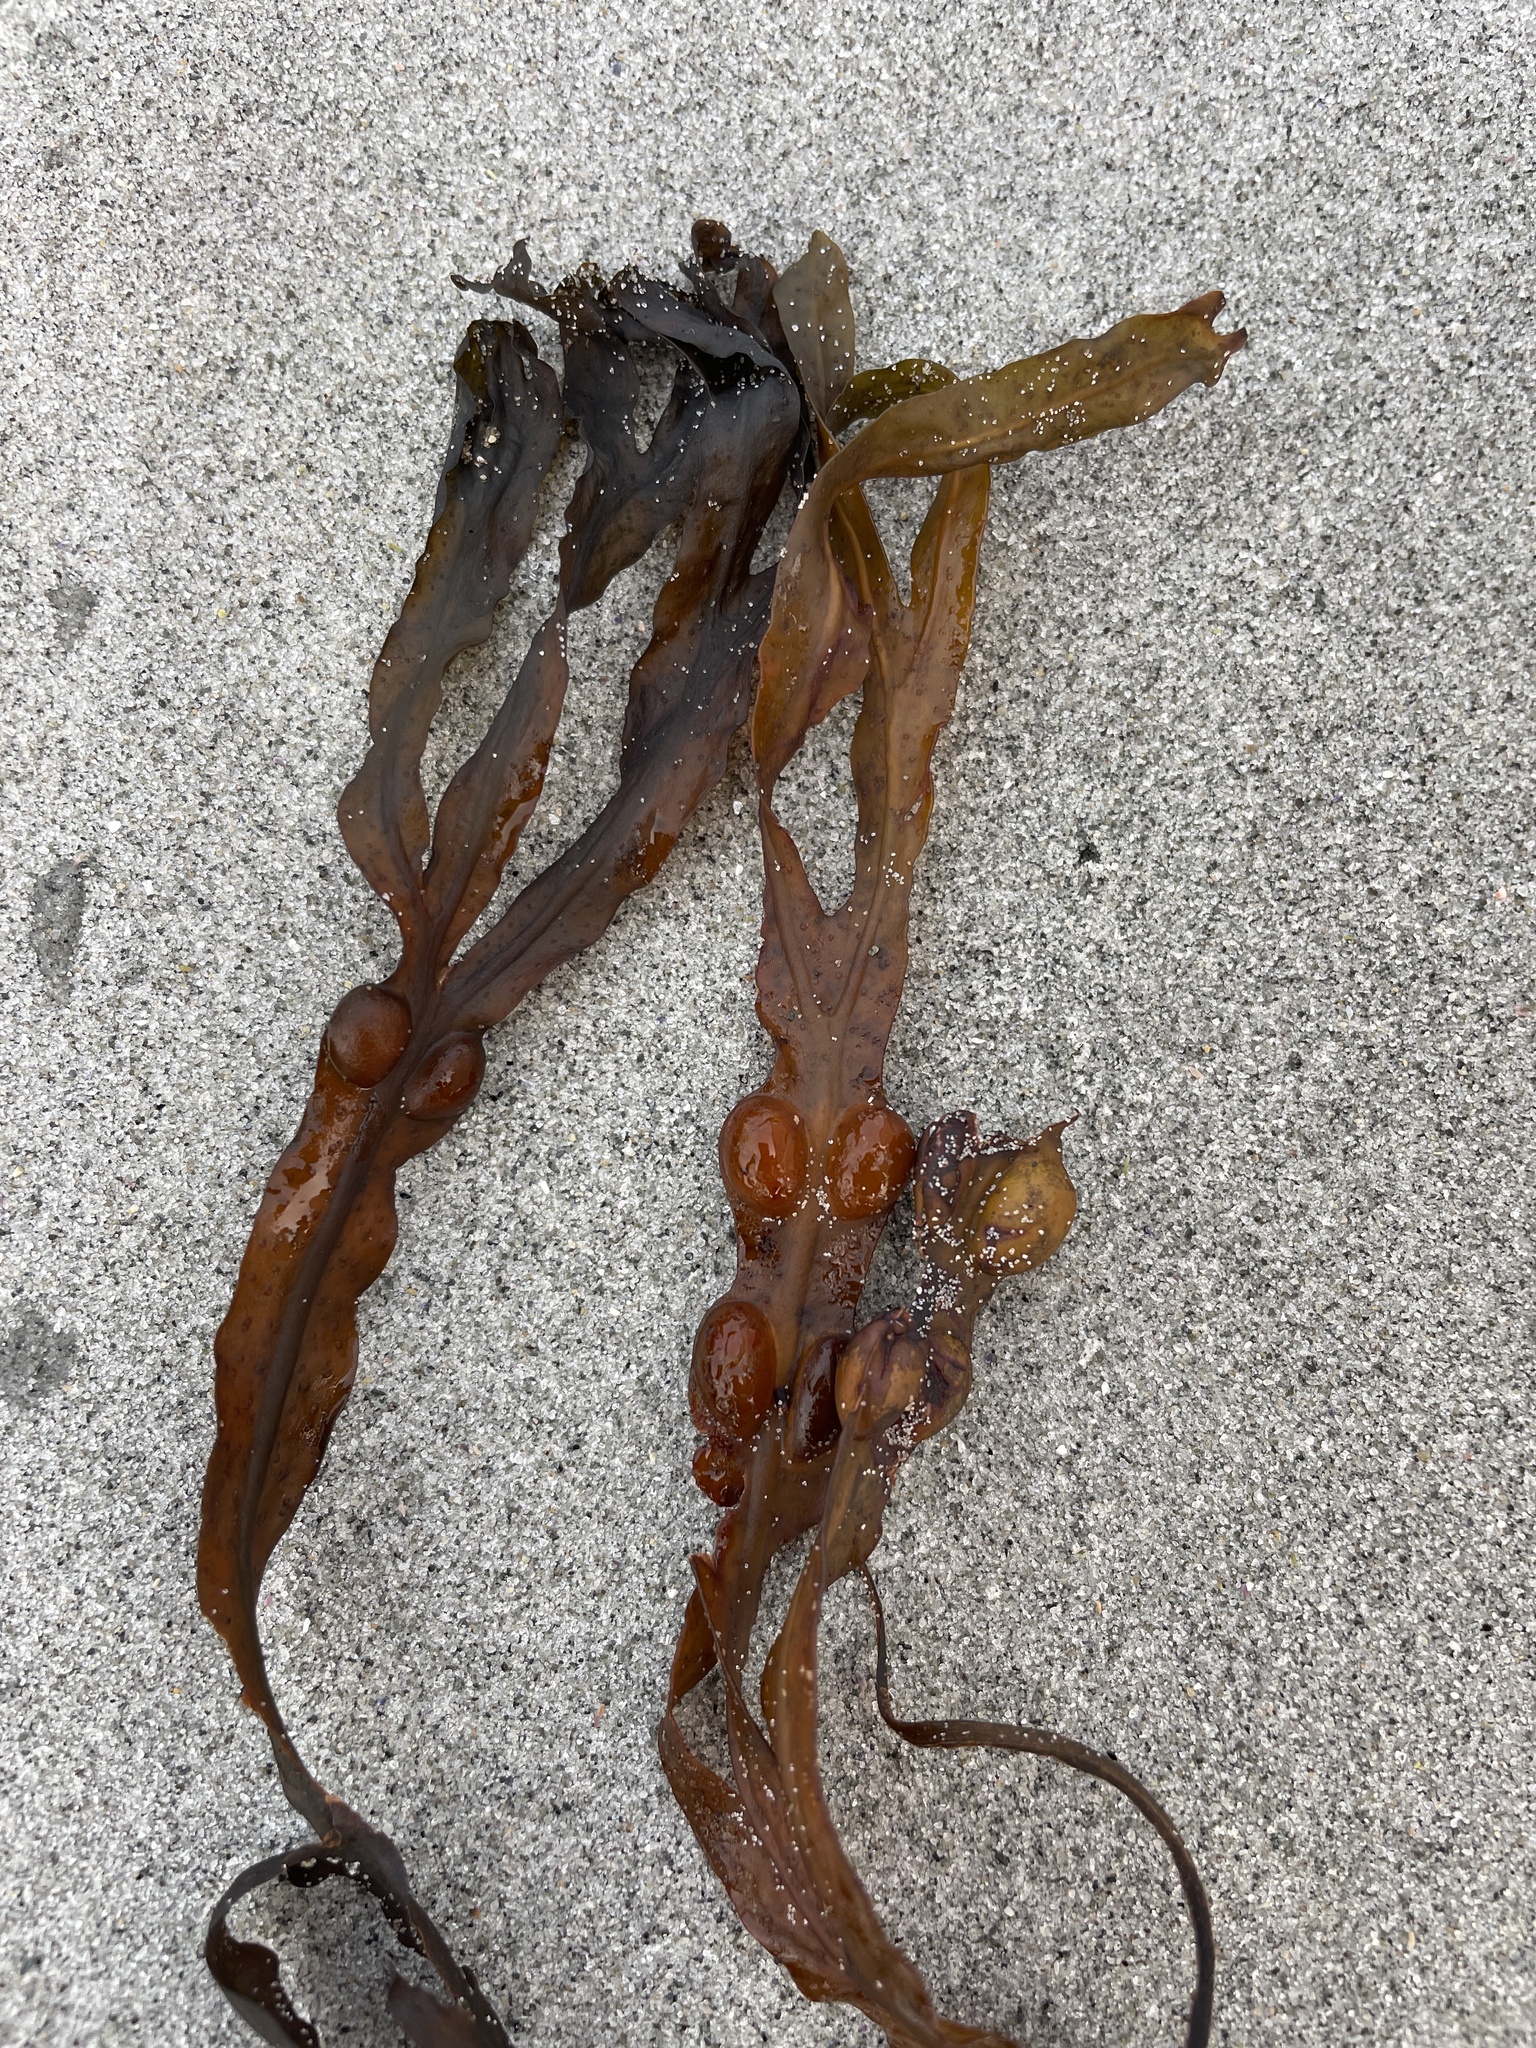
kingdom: Chromista
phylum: Ochrophyta
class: Phaeophyceae
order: Fucales
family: Fucaceae
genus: Fucus
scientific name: Fucus vesiculosus
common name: Bladder wrack
